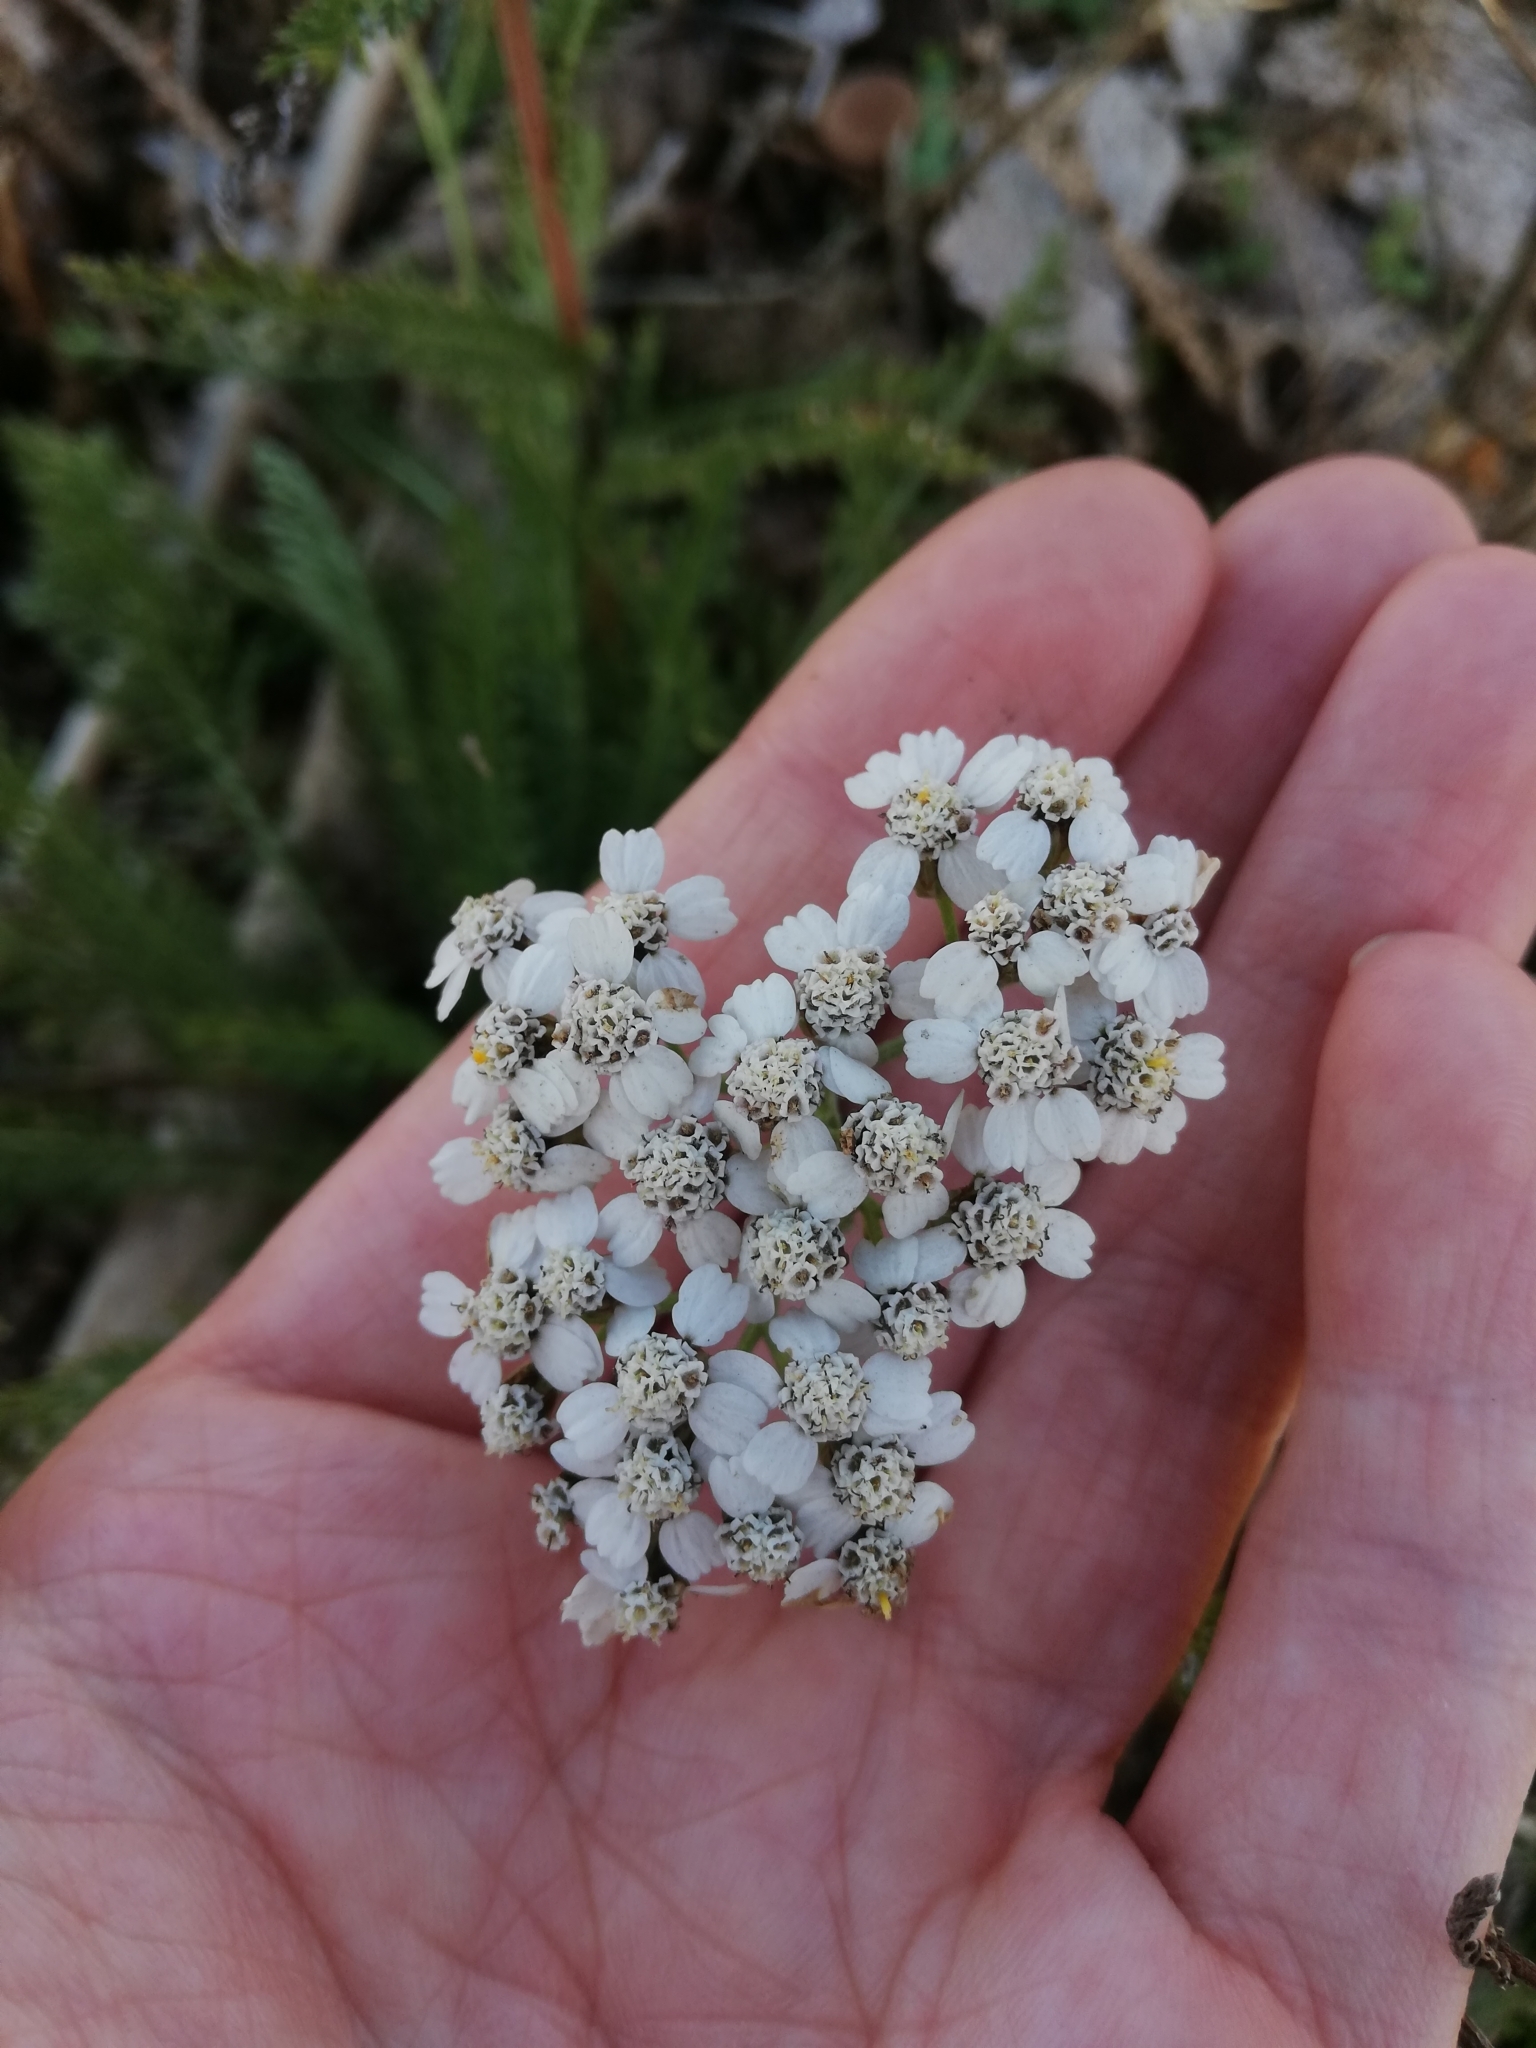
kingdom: Plantae
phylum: Tracheophyta
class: Magnoliopsida
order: Asterales
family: Asteraceae
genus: Achillea
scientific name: Achillea millefolium
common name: Yarrow
